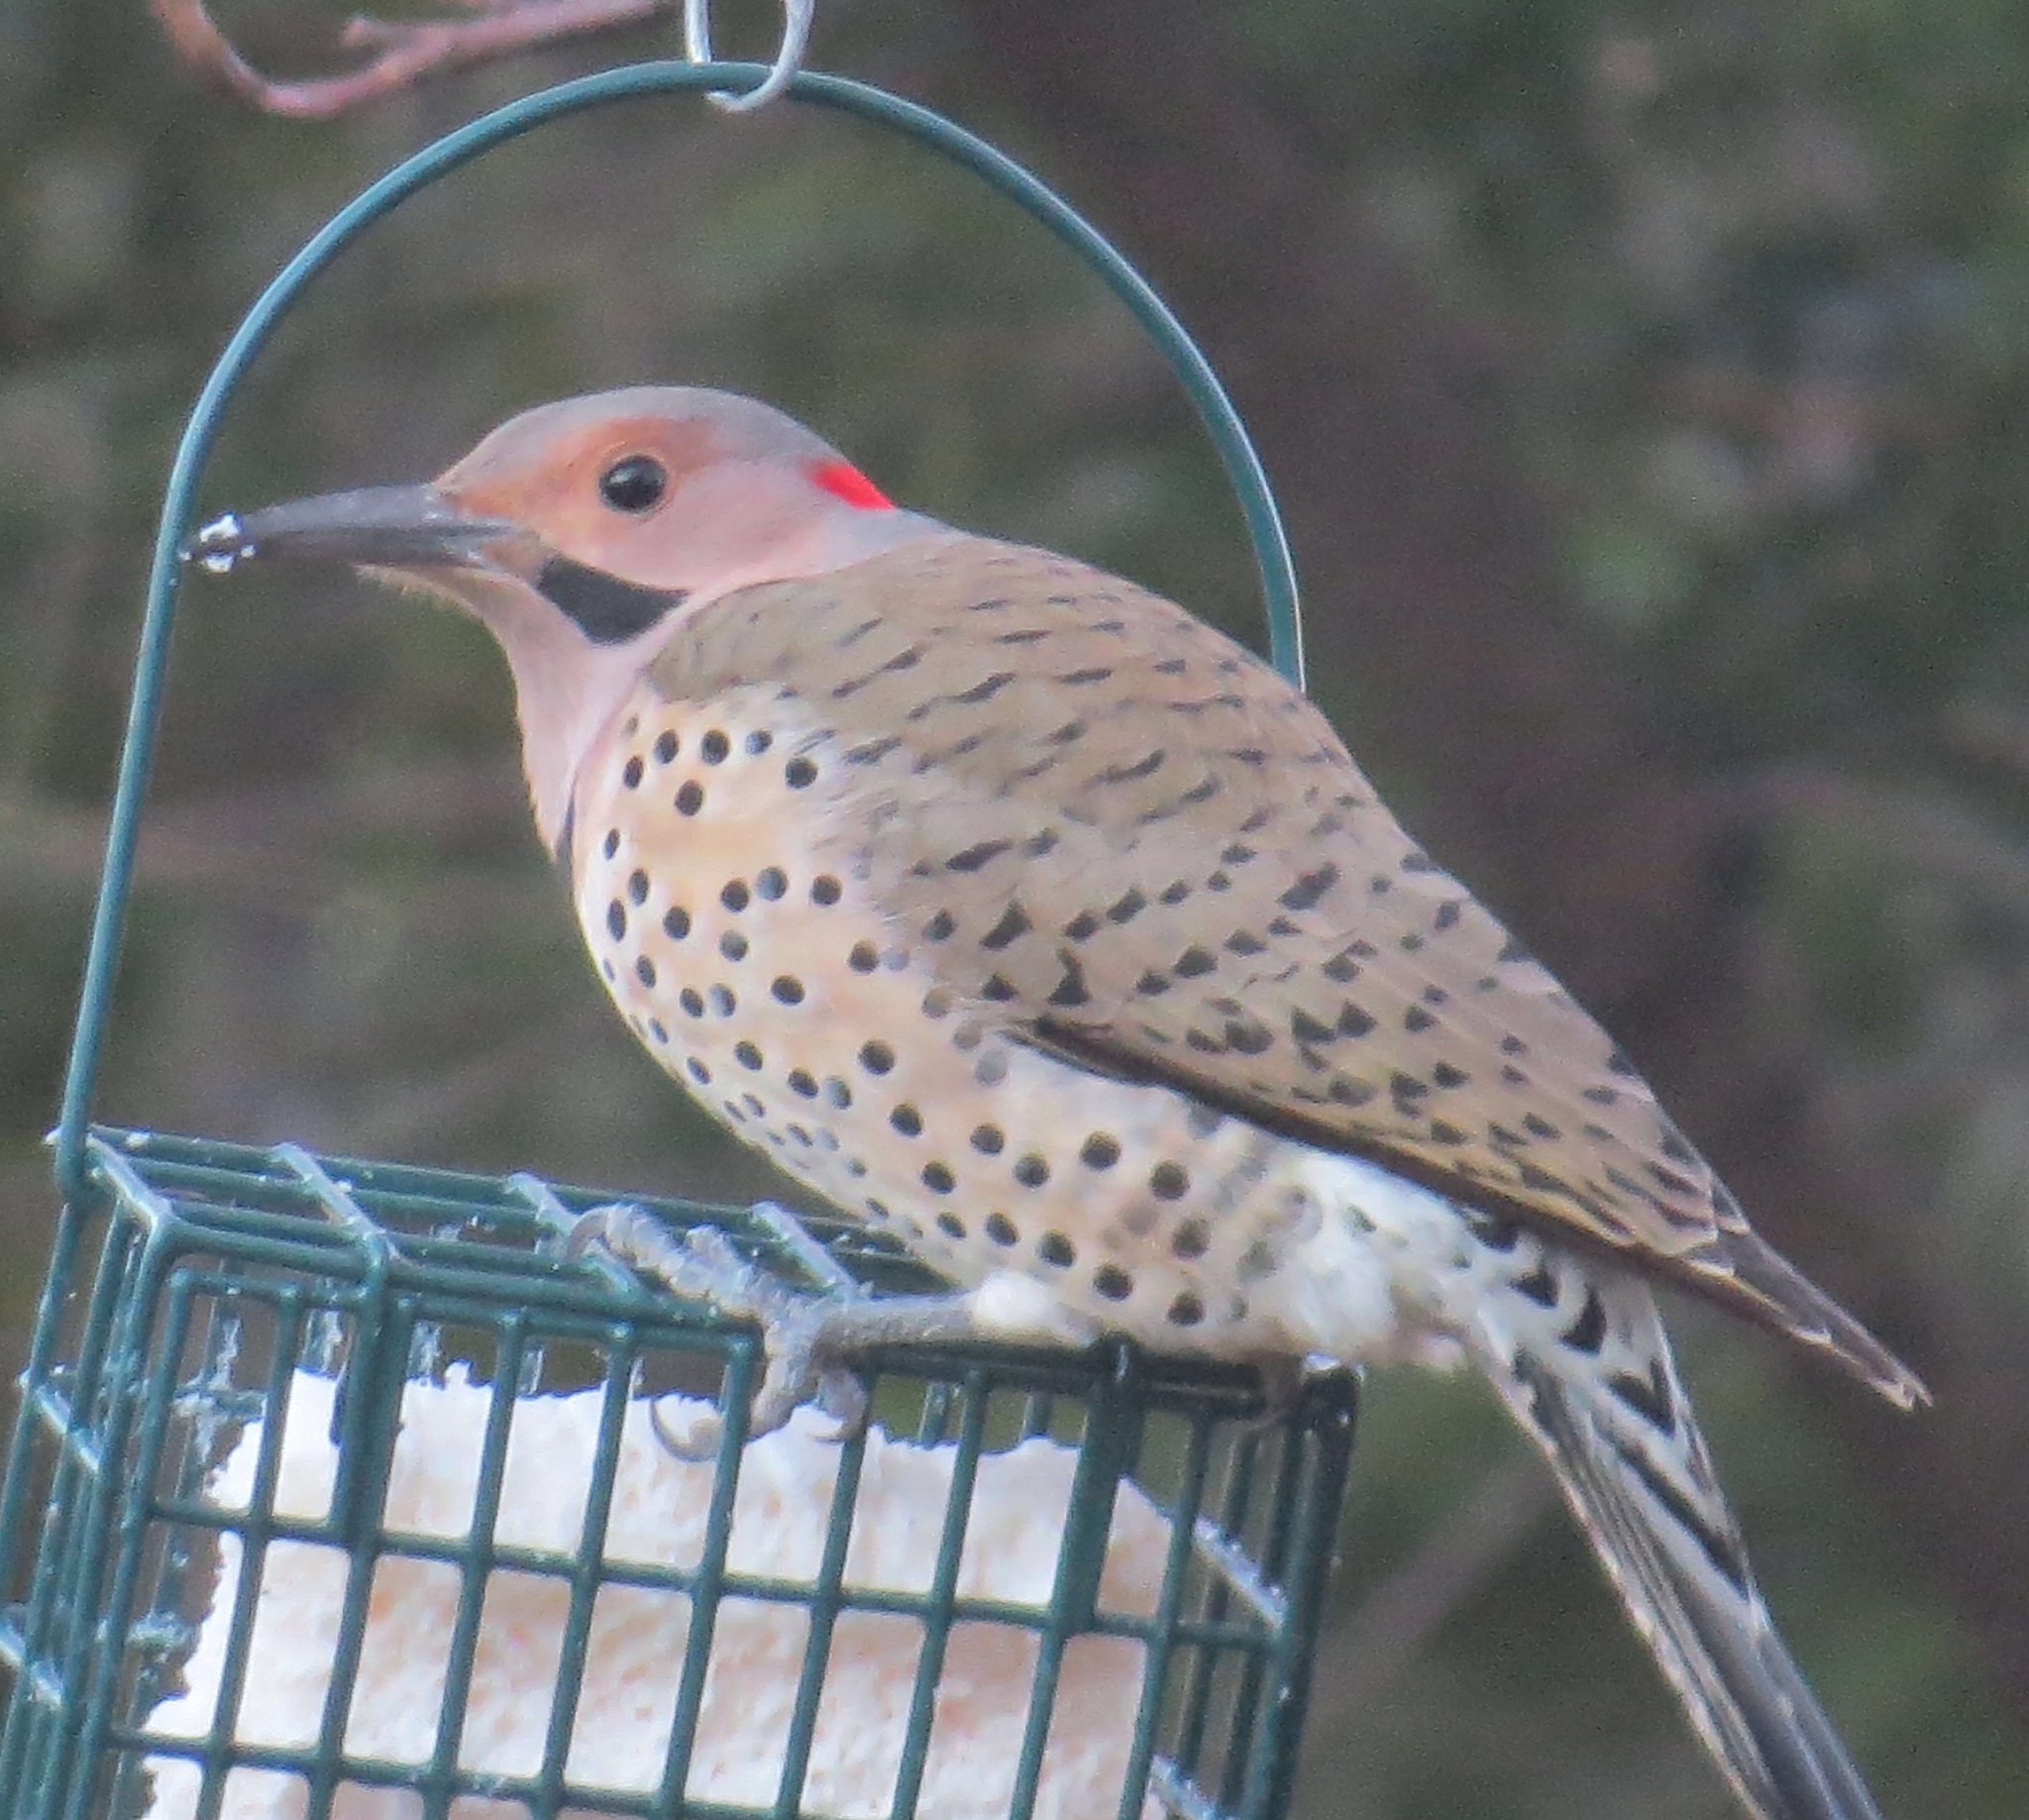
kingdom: Animalia
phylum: Chordata
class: Aves
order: Piciformes
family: Picidae
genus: Colaptes
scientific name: Colaptes auratus
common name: Northern flicker
